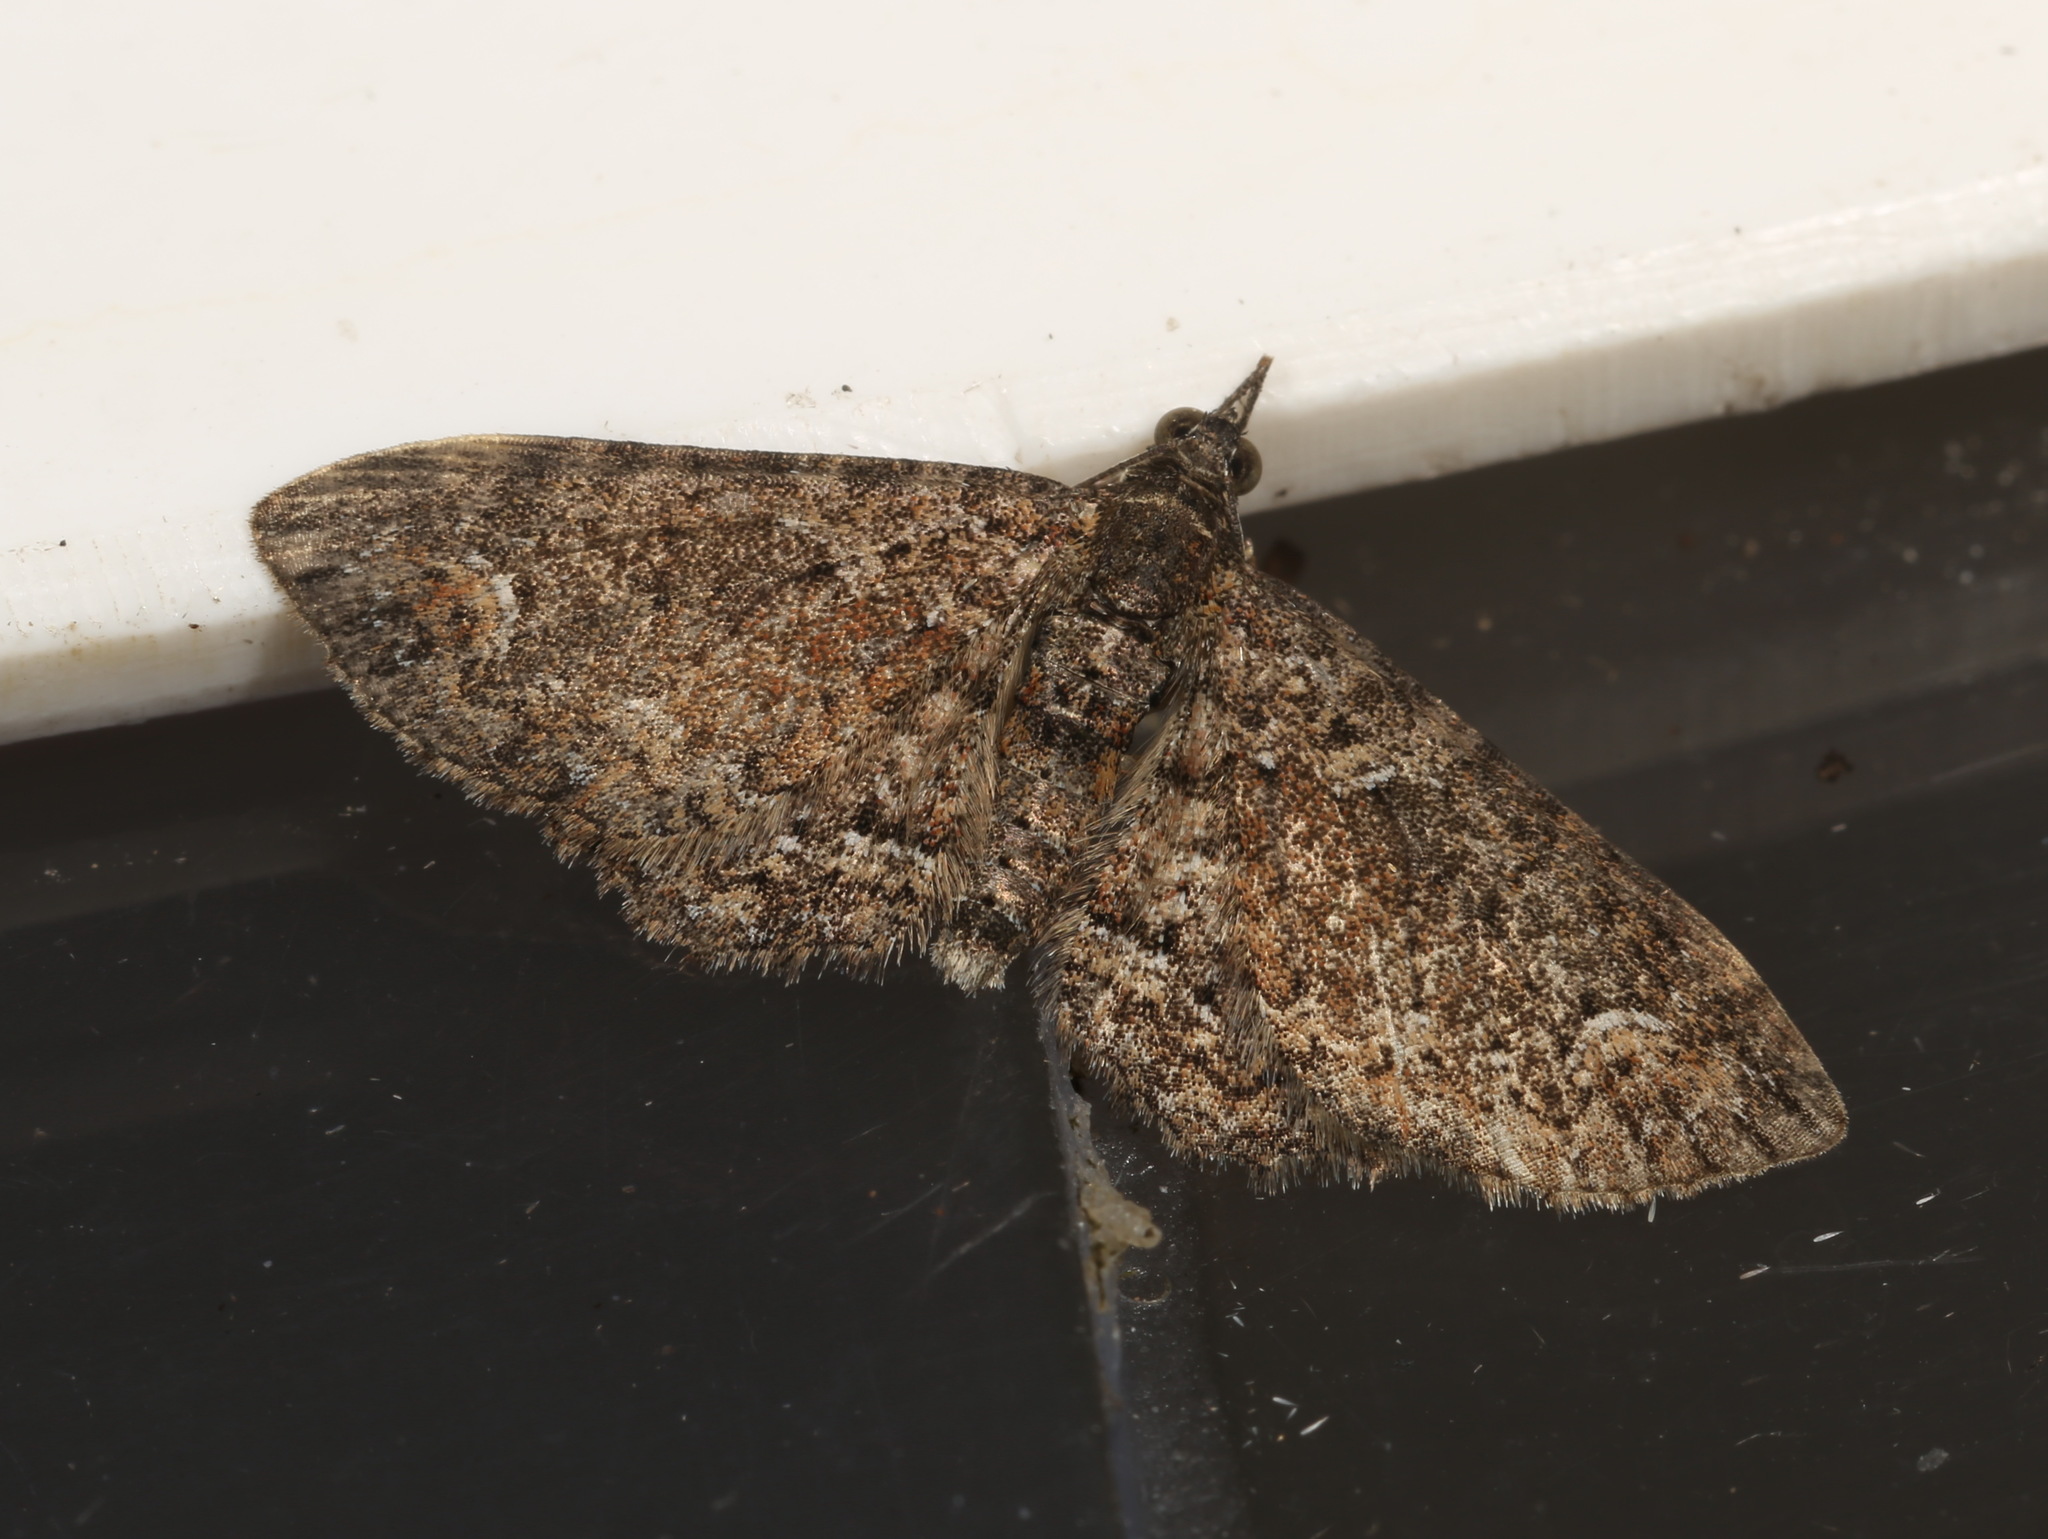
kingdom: Animalia
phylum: Arthropoda
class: Insecta
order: Lepidoptera
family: Geometridae
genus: Pasiphilodes
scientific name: Pasiphilodes testulata
